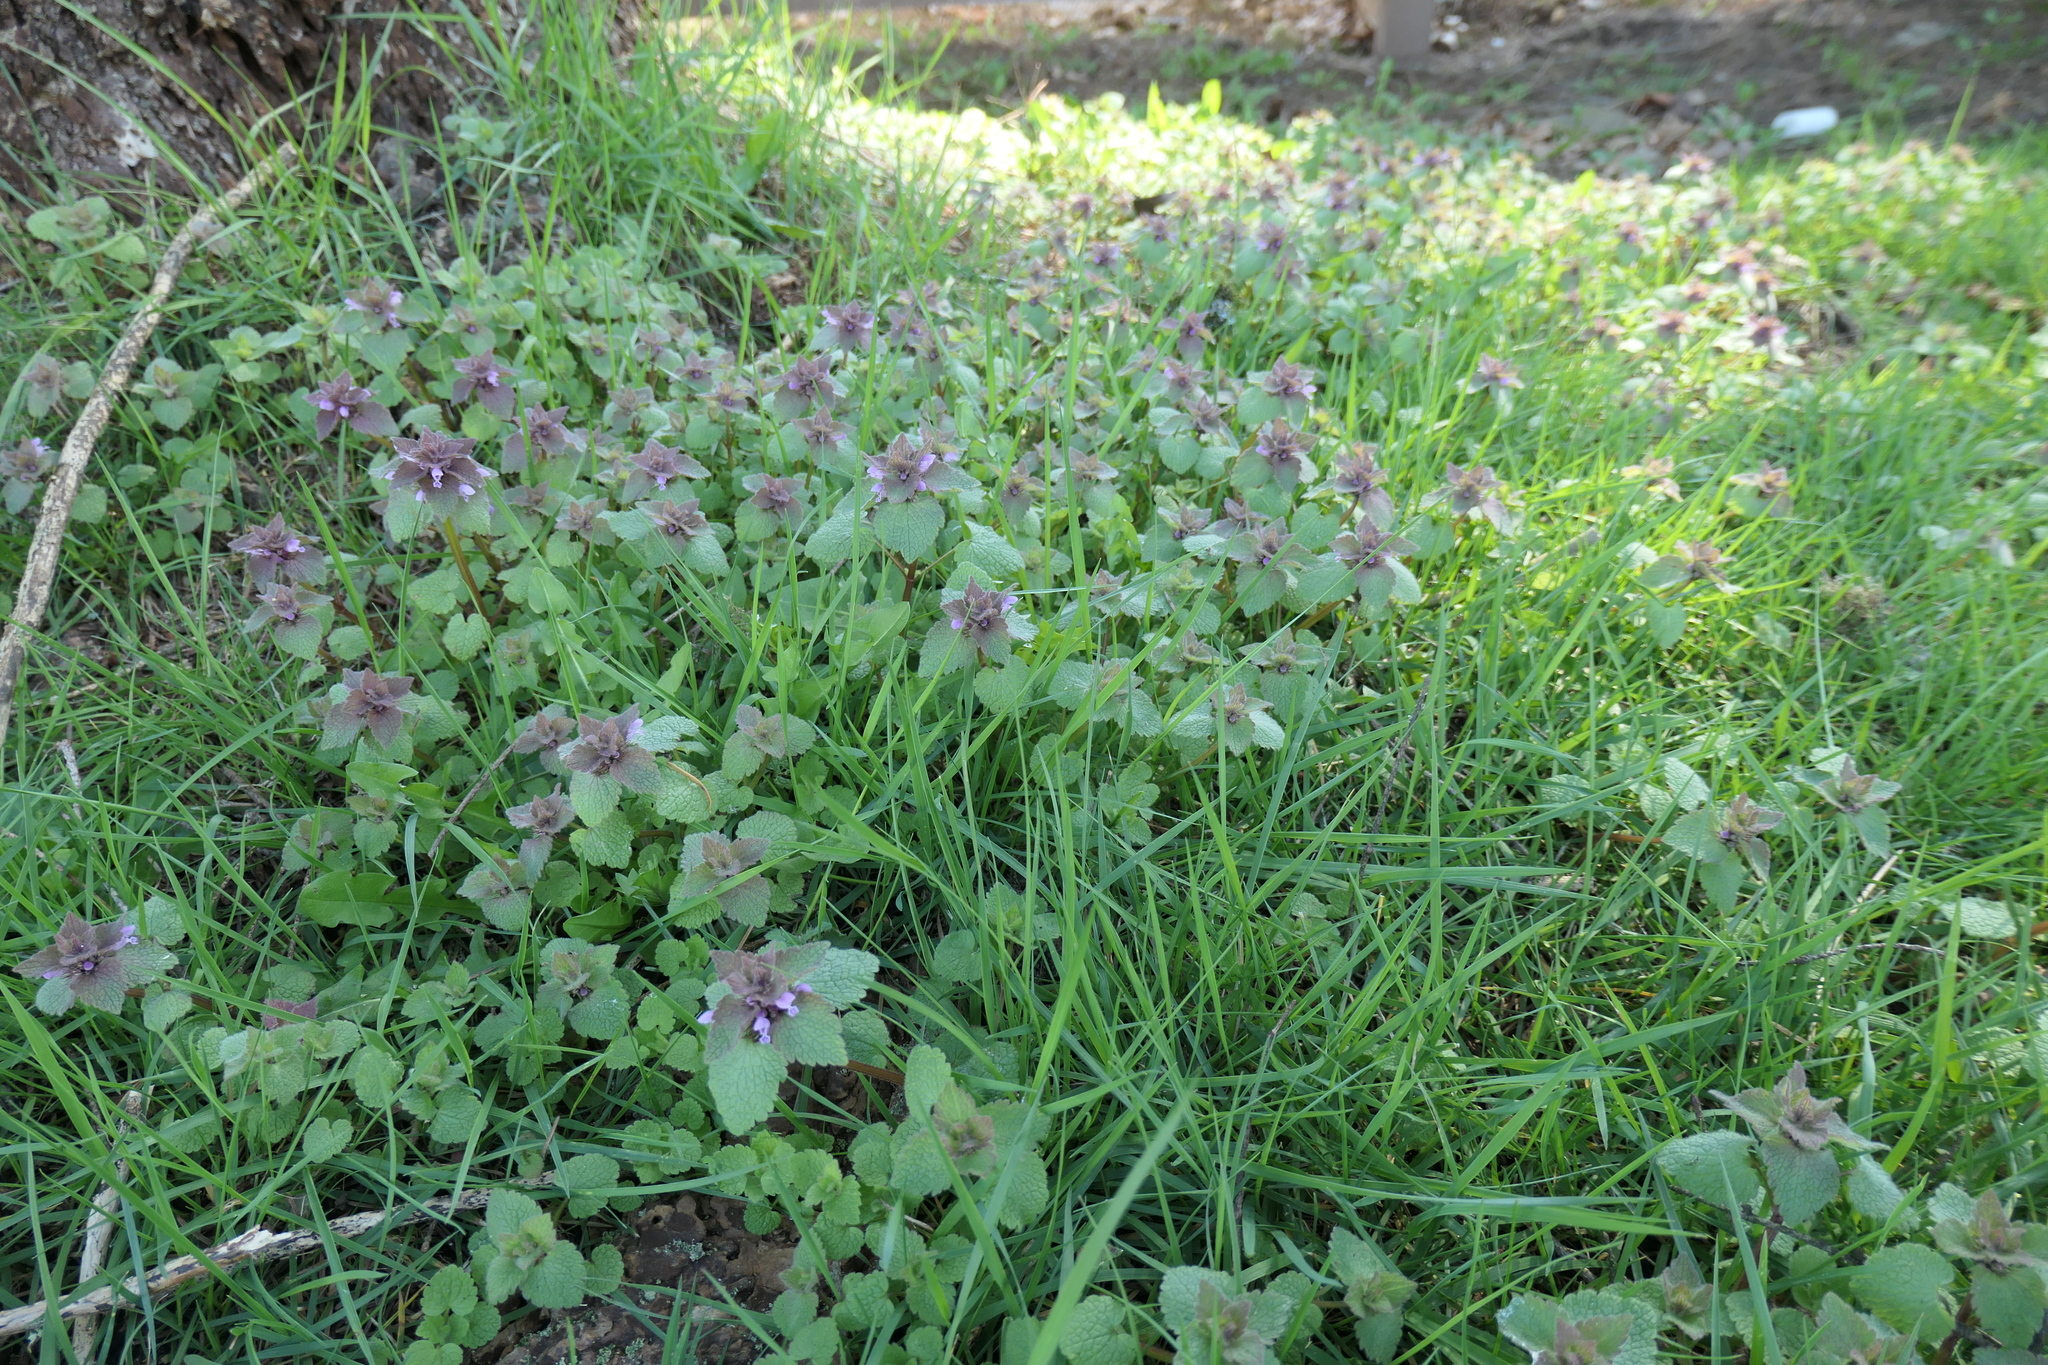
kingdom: Plantae
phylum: Tracheophyta
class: Magnoliopsida
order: Lamiales
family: Lamiaceae
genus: Lamium
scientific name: Lamium purpureum
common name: Red dead-nettle
